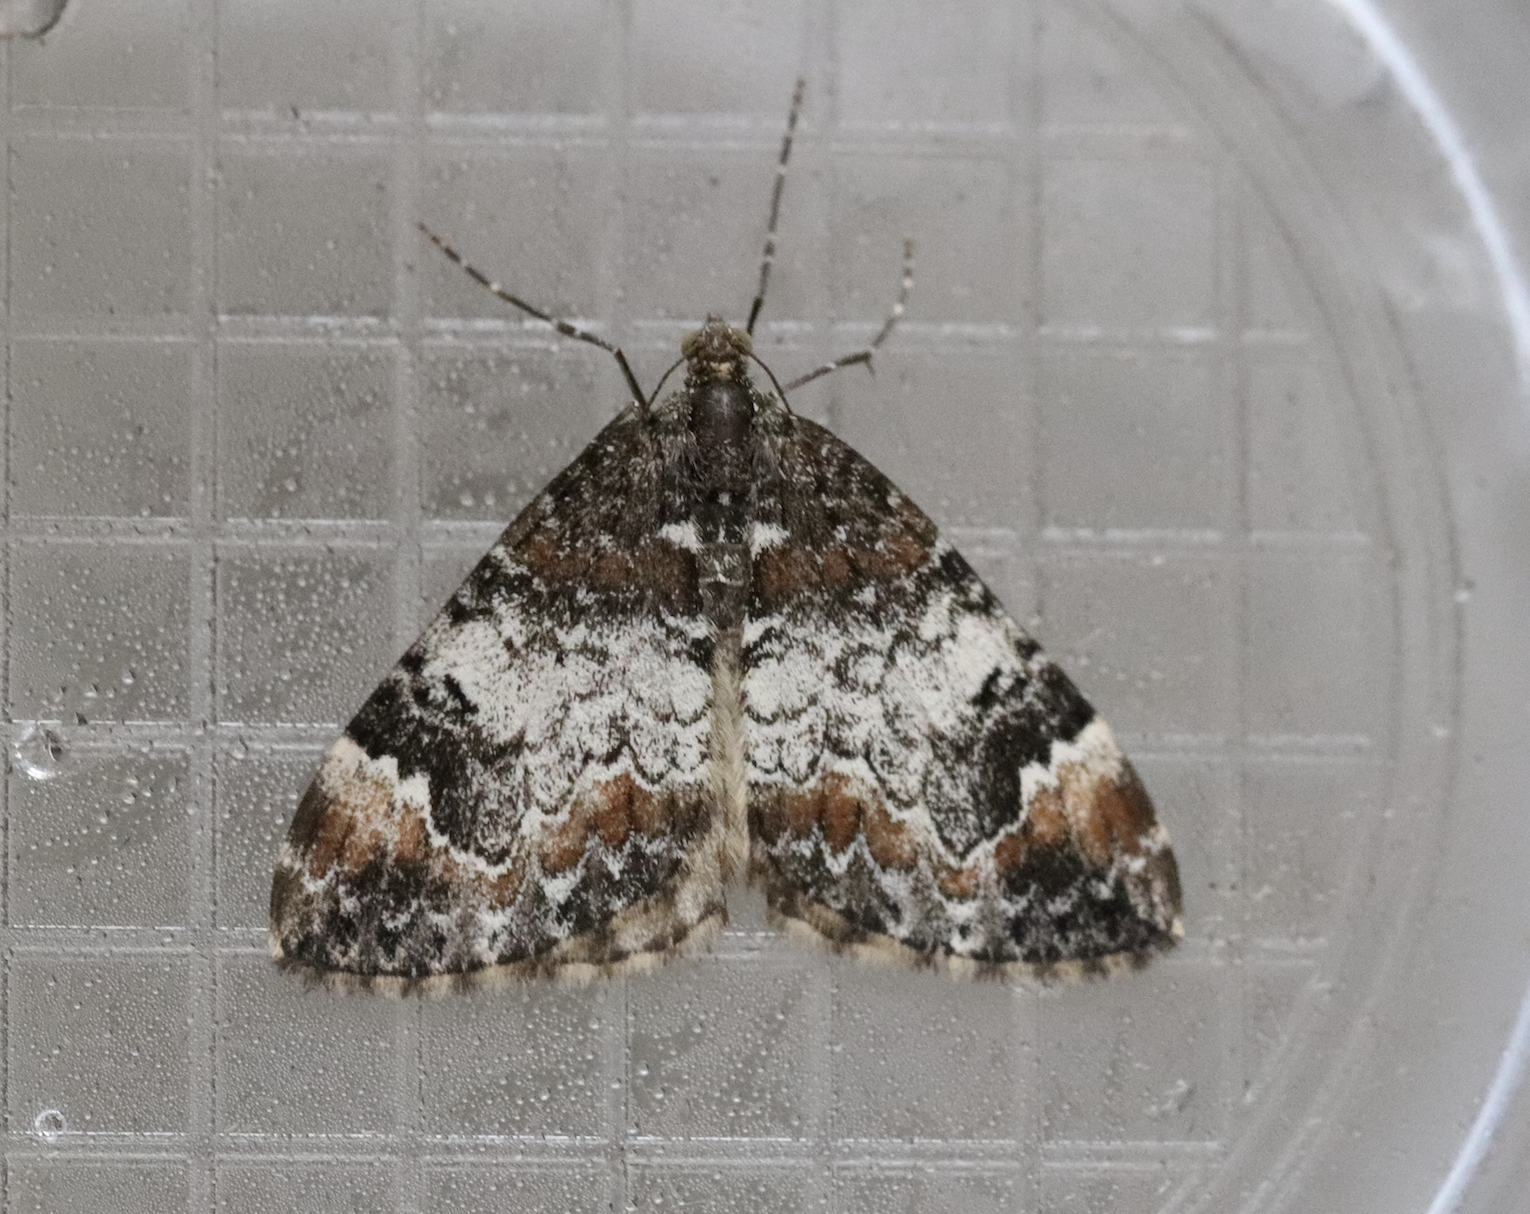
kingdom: Animalia
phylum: Arthropoda
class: Insecta
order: Lepidoptera
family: Geometridae
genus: Dysstroma
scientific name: Dysstroma truncata
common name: Common marbled carpet
